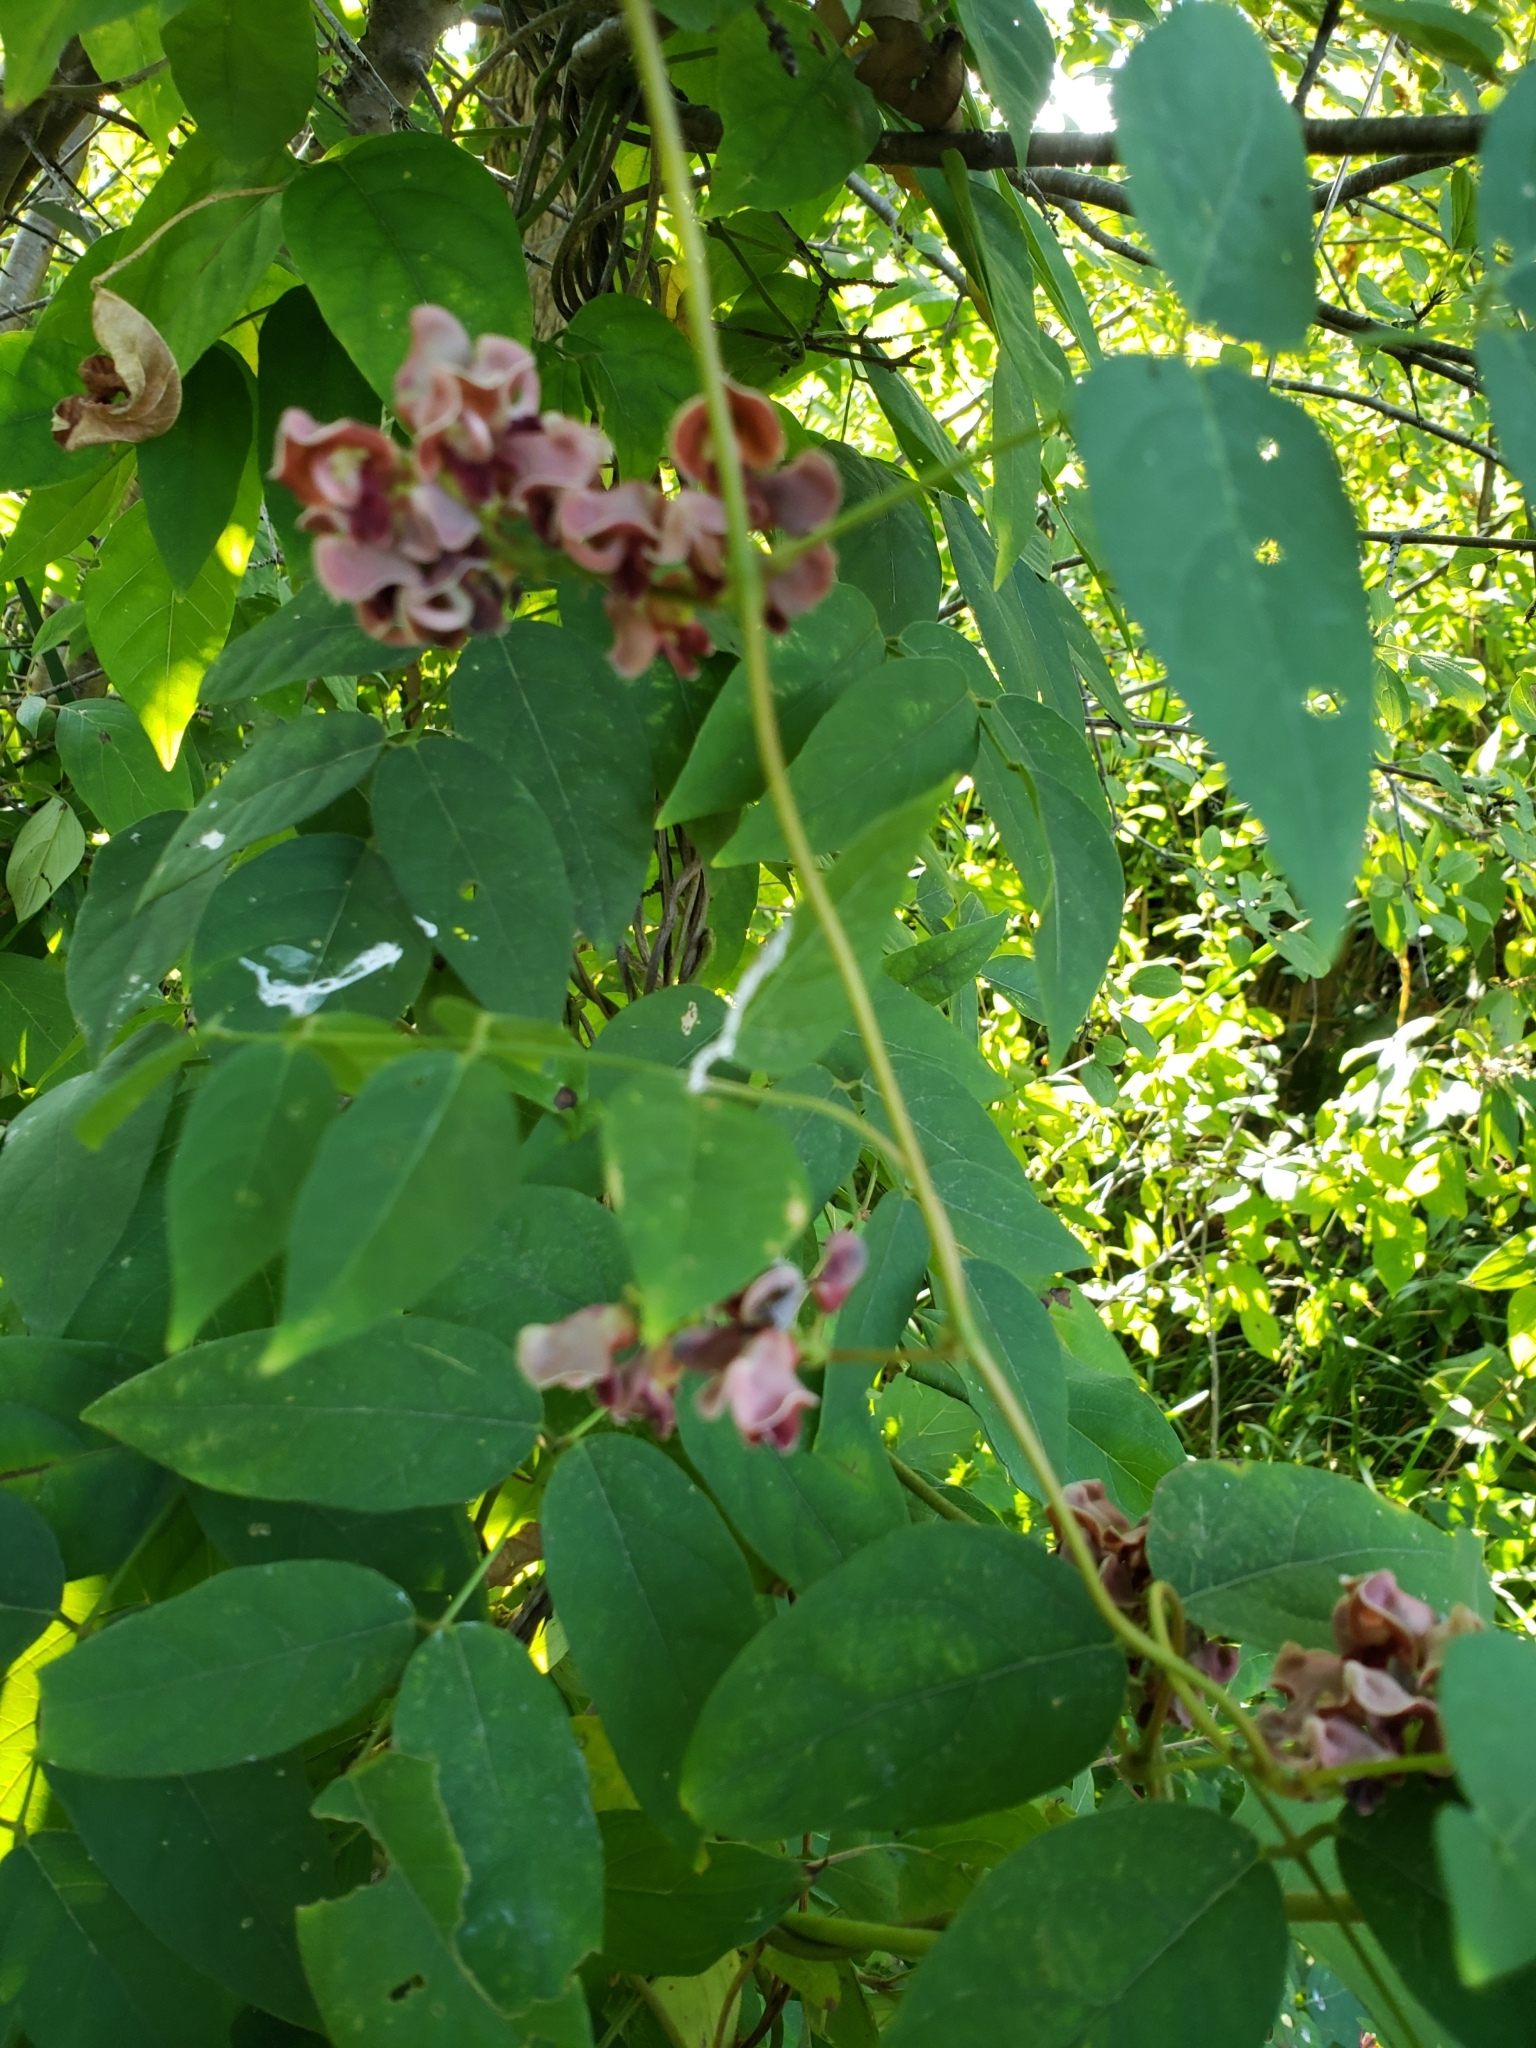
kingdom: Plantae
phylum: Tracheophyta
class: Magnoliopsida
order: Fabales
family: Fabaceae
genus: Apios
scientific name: Apios americana
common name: American potato-bean
